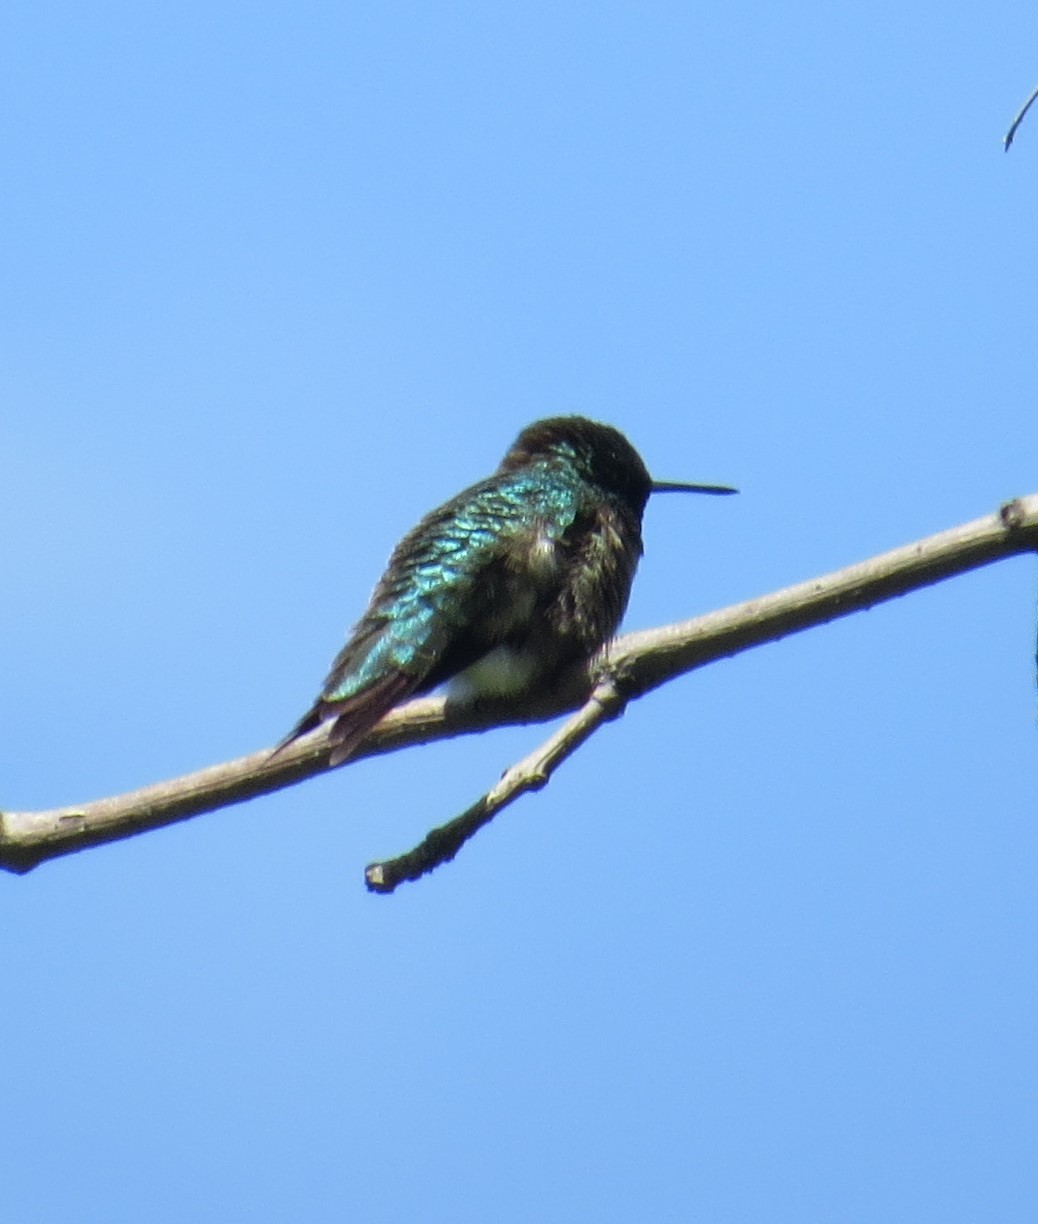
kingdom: Animalia
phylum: Chordata
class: Aves
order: Apodiformes
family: Trochilidae
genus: Archilochus
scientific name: Archilochus colubris
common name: Ruby-throated hummingbird
